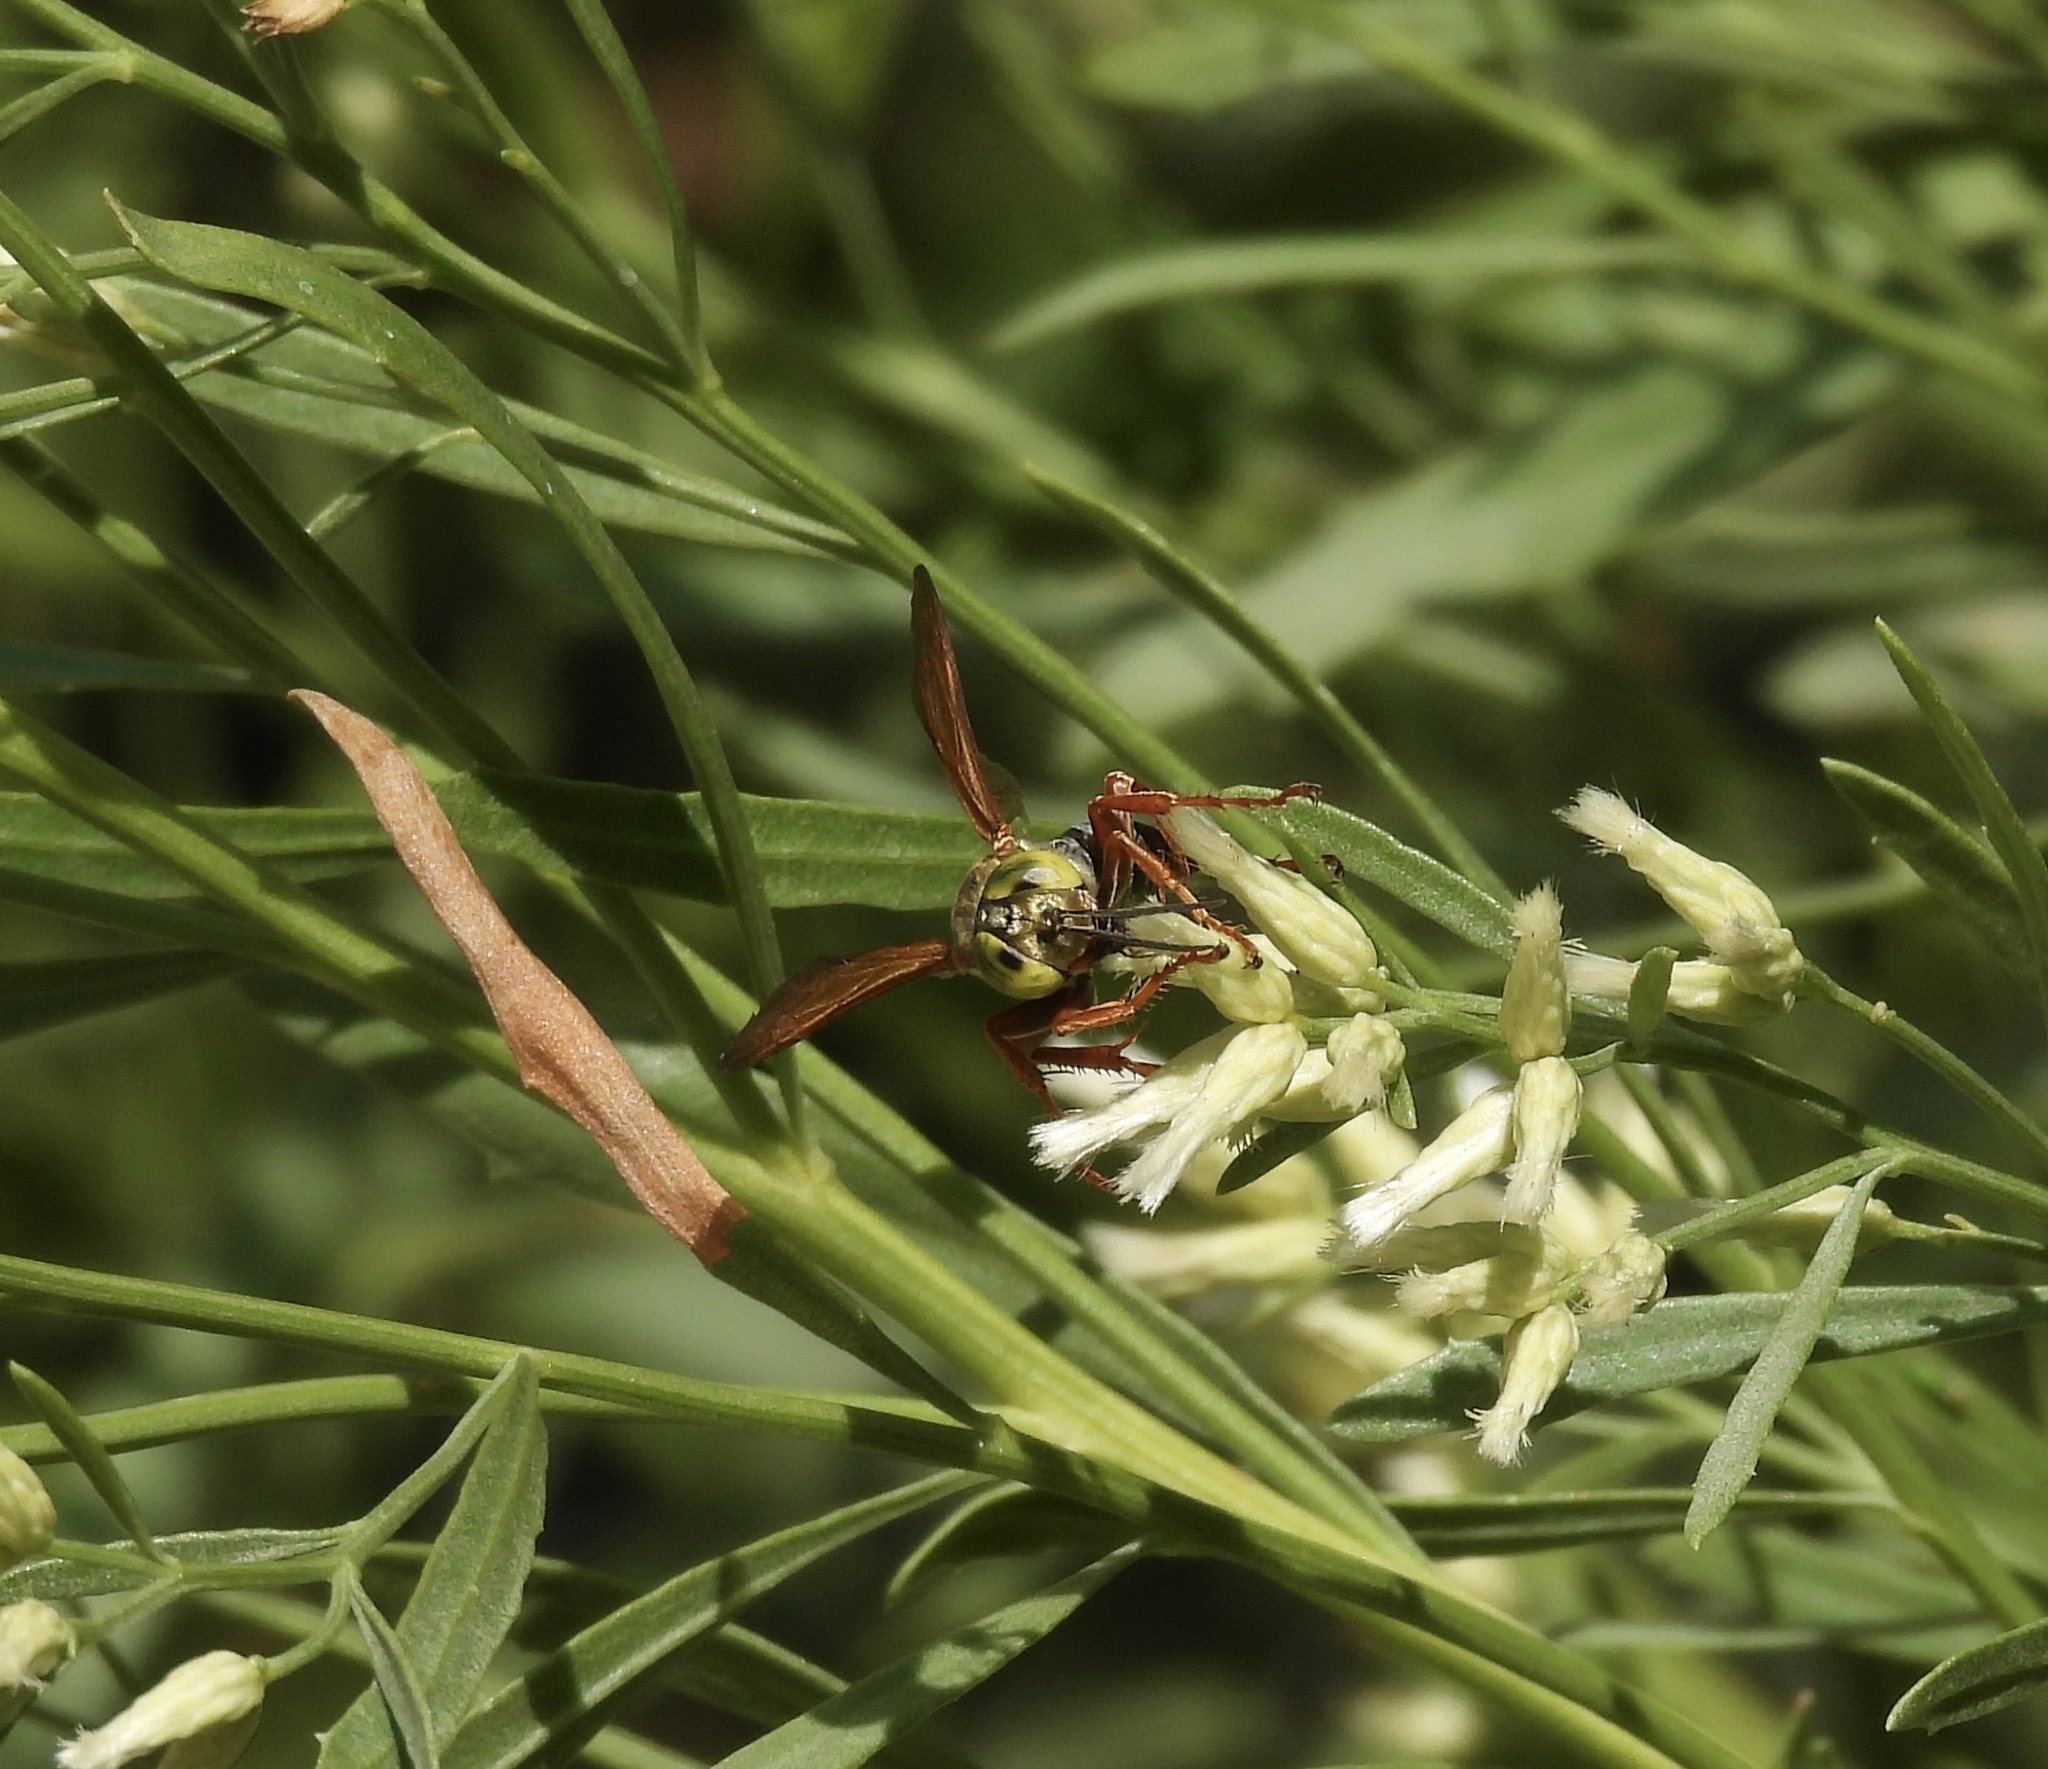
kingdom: Animalia
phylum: Arthropoda
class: Insecta
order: Hymenoptera
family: Crabronidae
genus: Tachytes
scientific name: Tachytes
